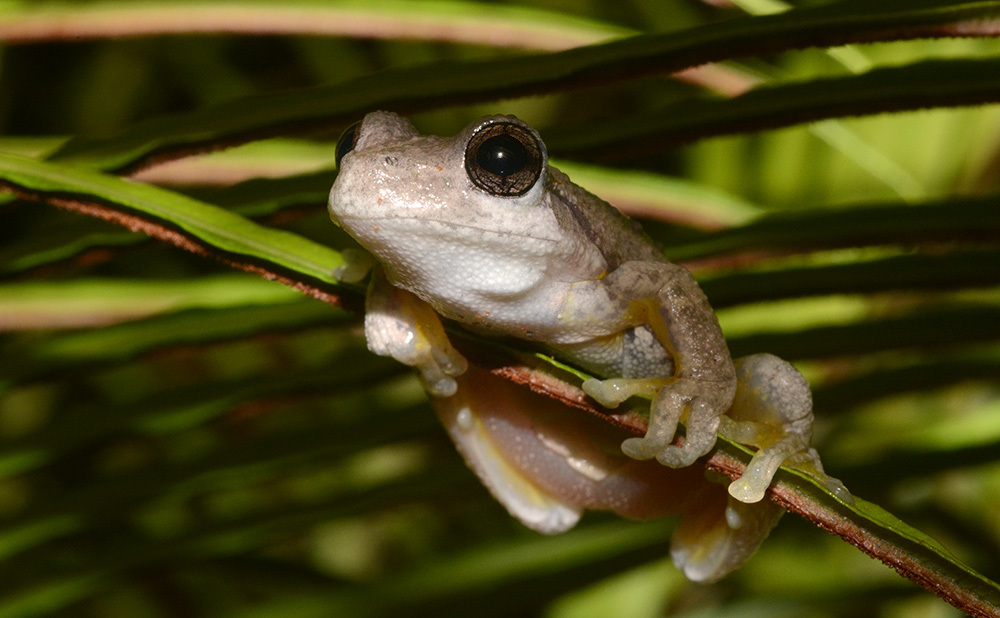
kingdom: Animalia
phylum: Chordata
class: Amphibia
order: Anura
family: Pelodryadidae
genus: Litoria
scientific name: Litoria peronii
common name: Emerald spotted treefrog
